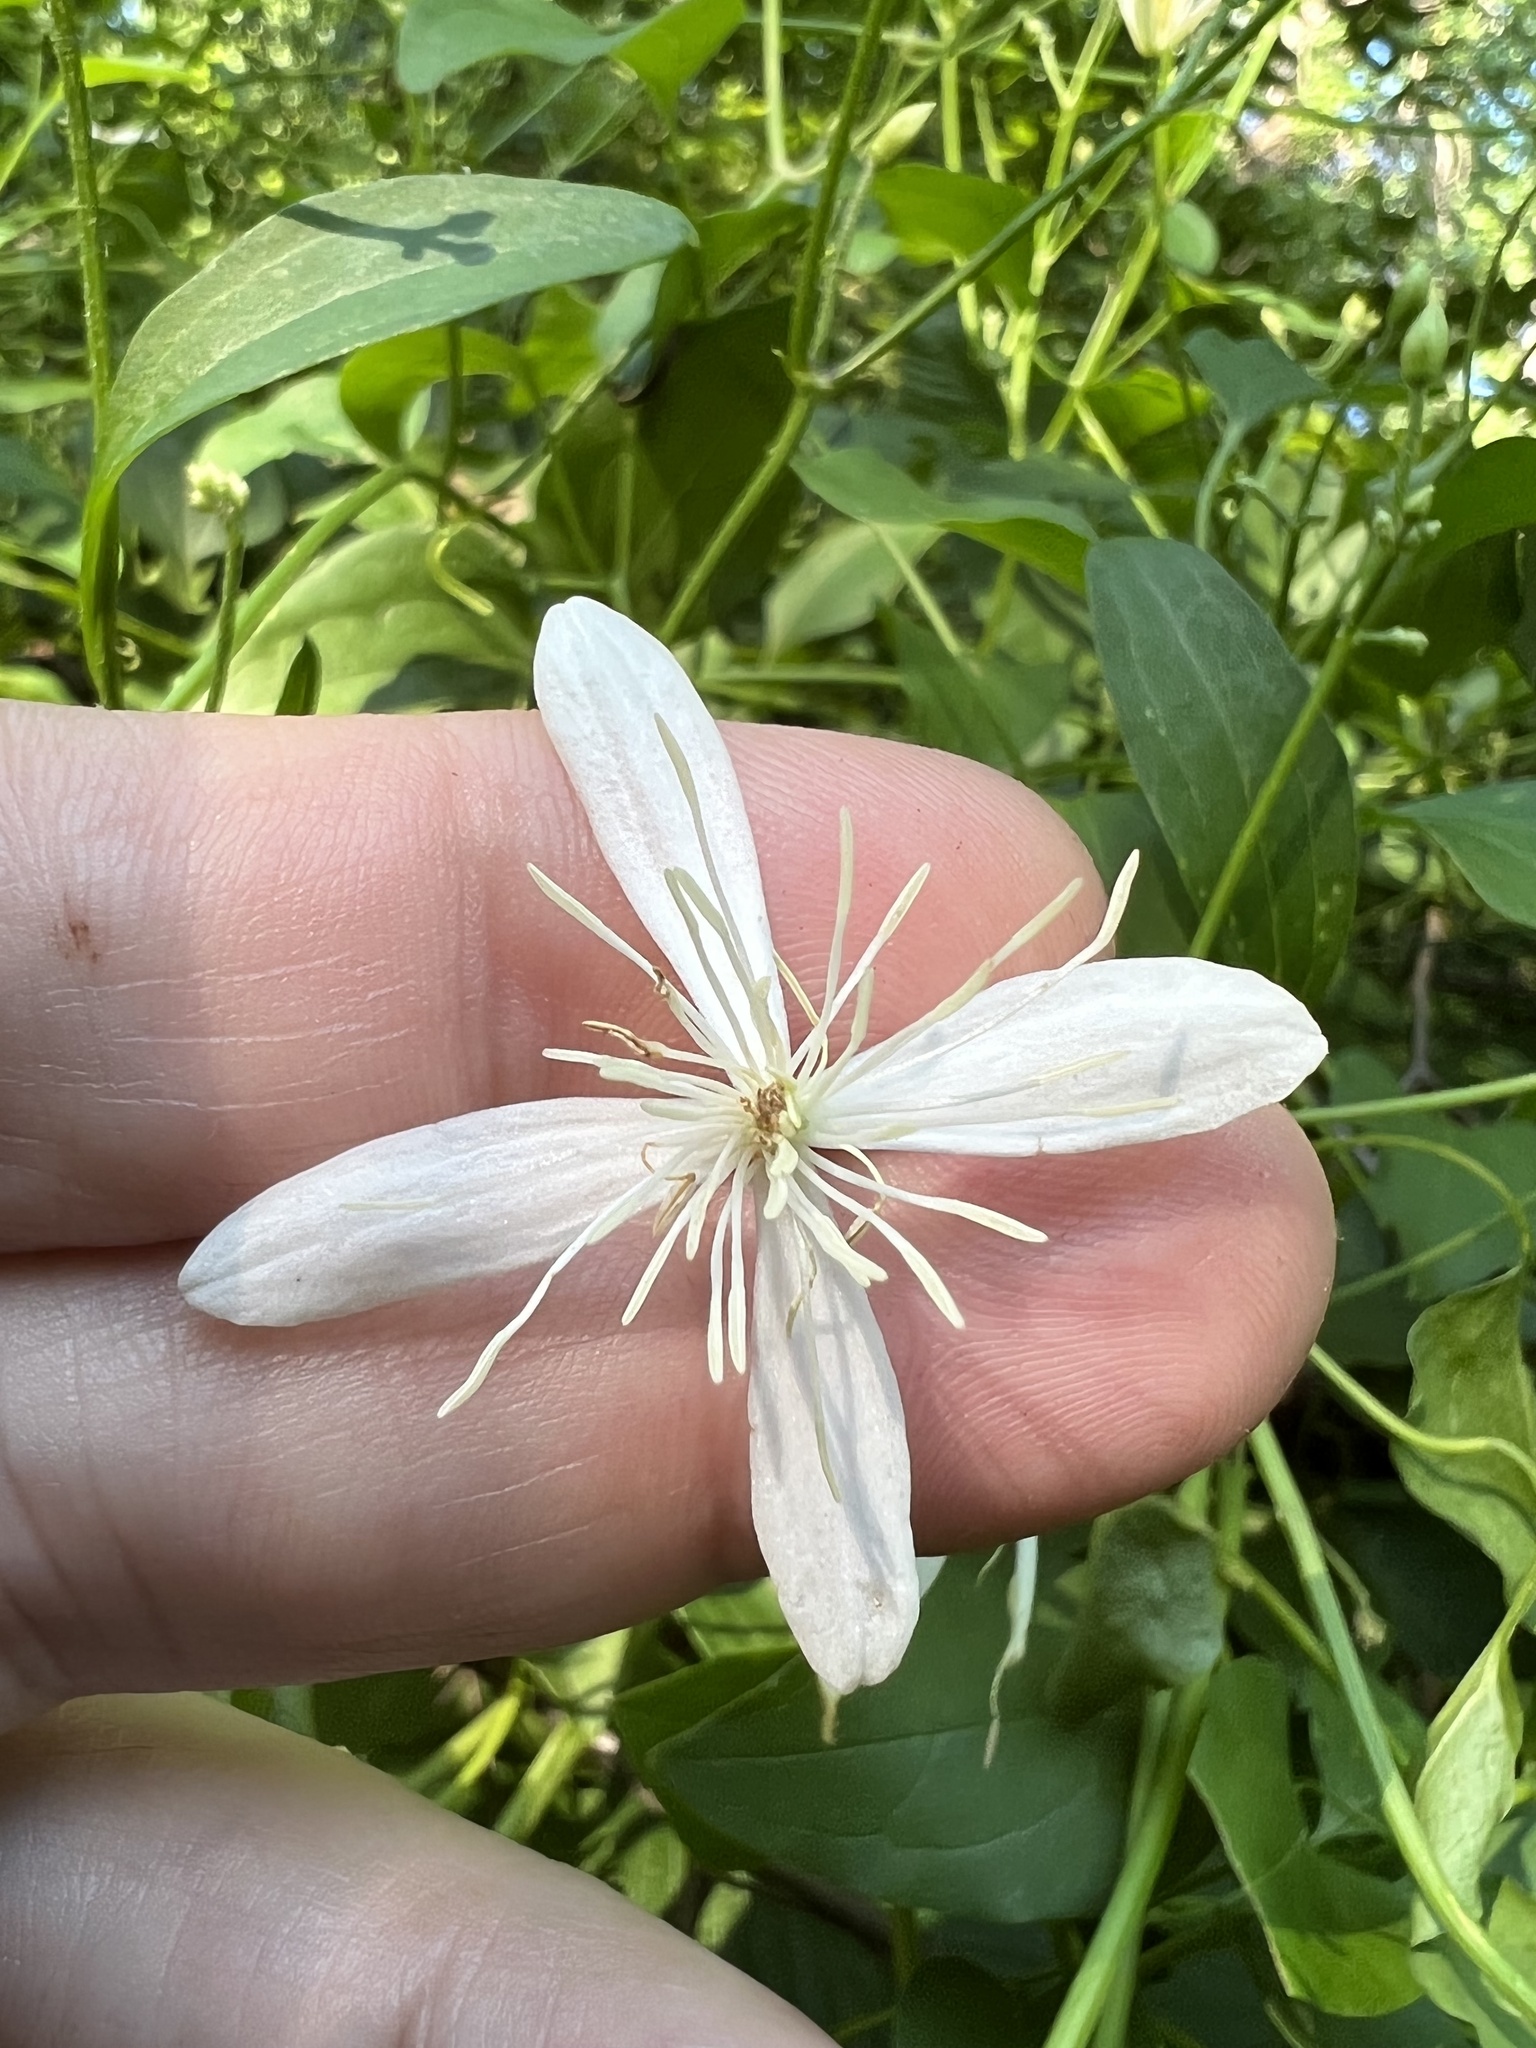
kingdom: Plantae
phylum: Tracheophyta
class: Magnoliopsida
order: Ranunculales
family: Ranunculaceae
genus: Clematis
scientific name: Clematis terniflora
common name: Sweet autumn clematis
